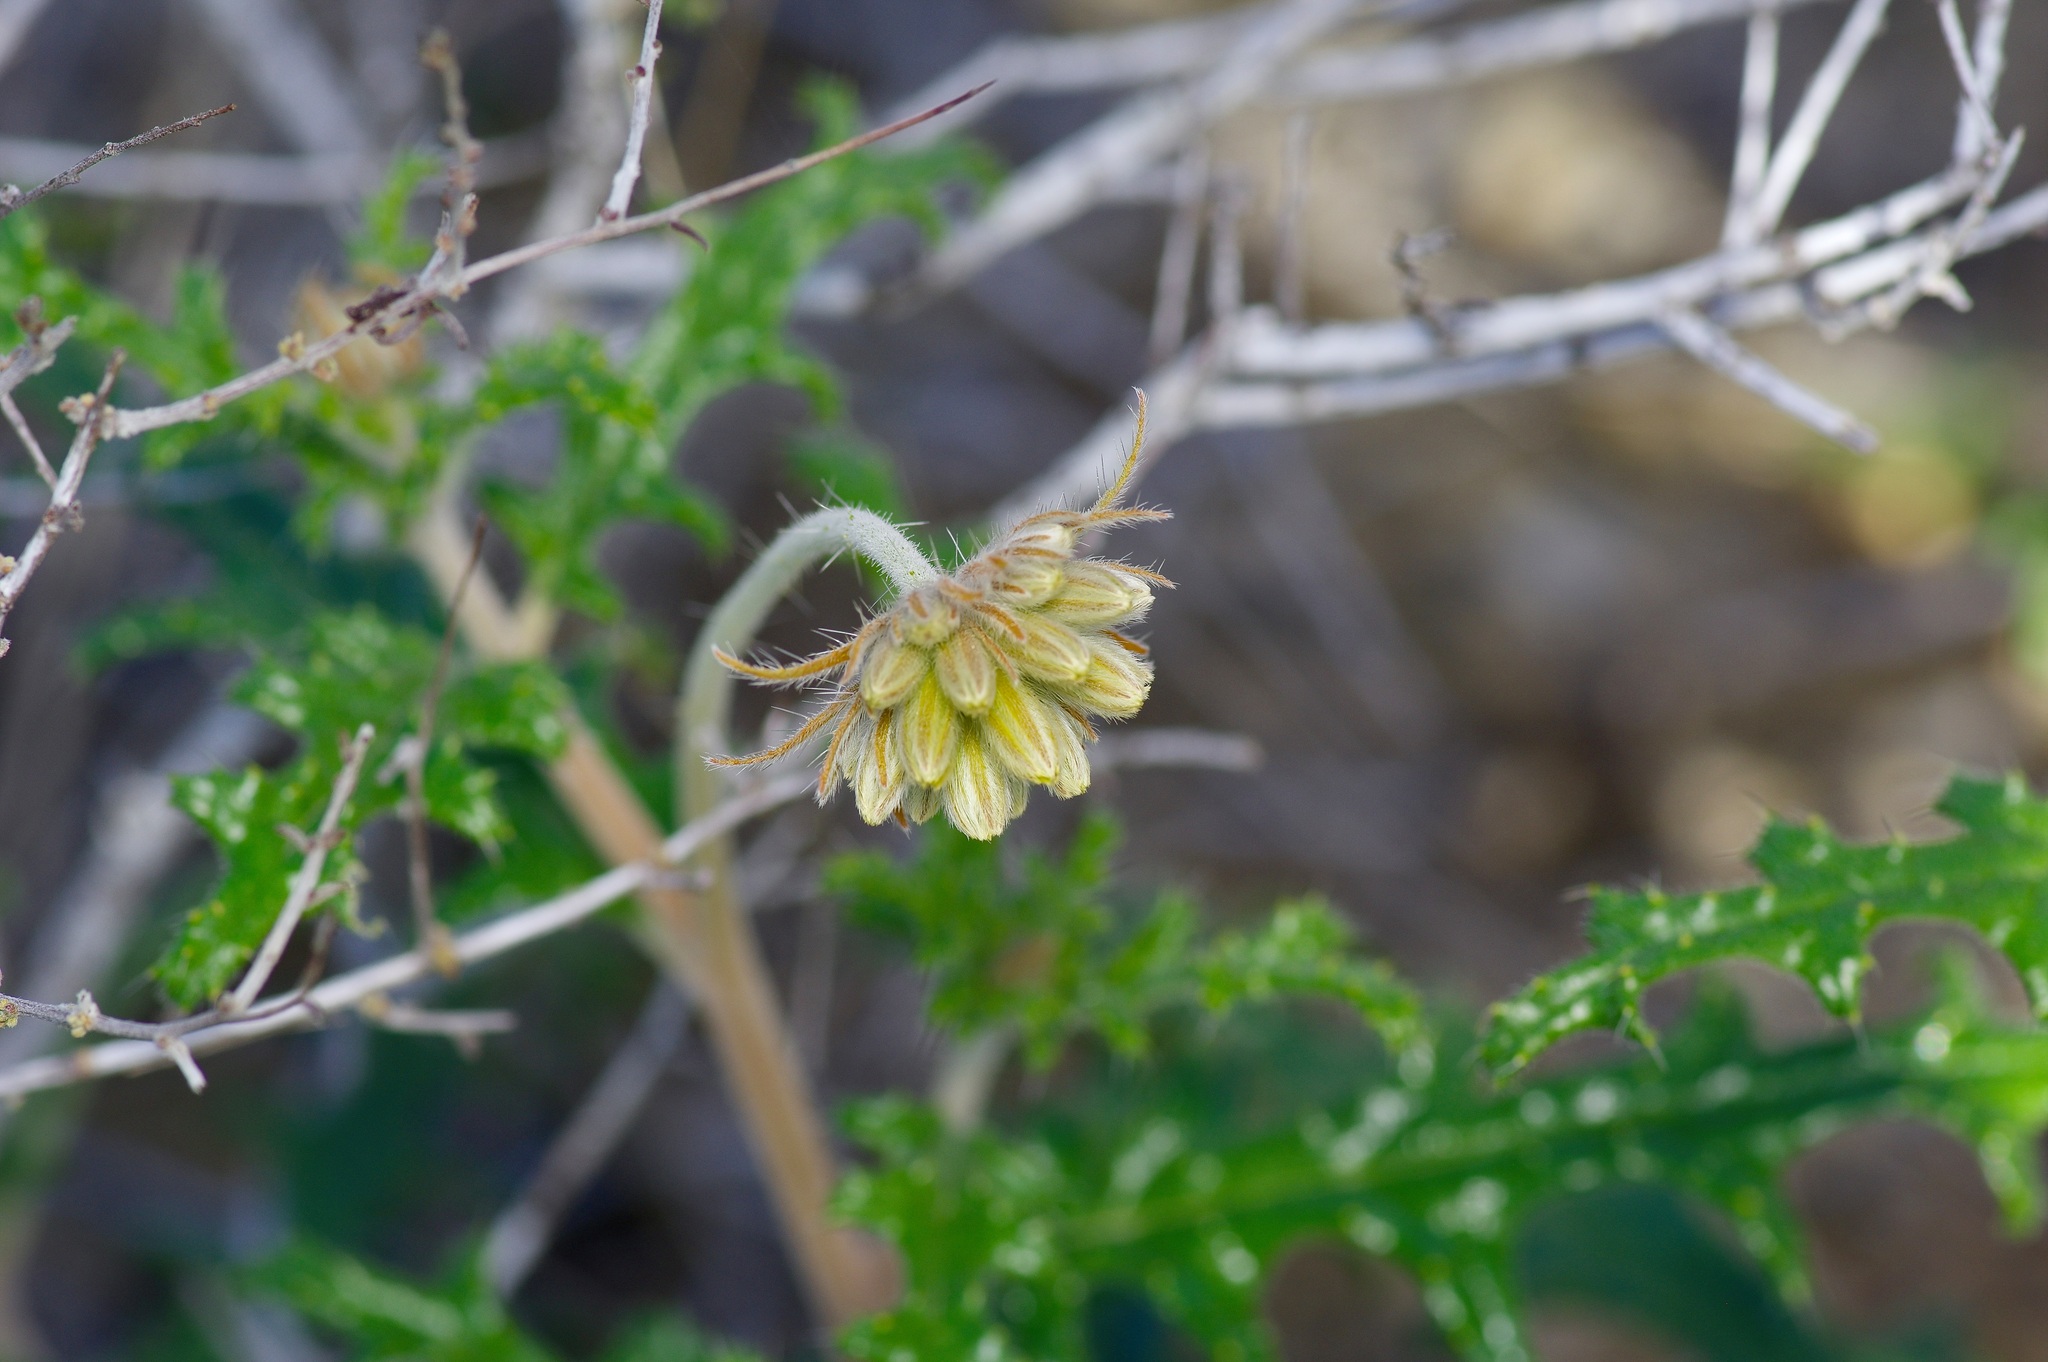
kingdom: Plantae
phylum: Tracheophyta
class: Magnoliopsida
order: Cornales
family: Loasaceae
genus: Cevallia
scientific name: Cevallia sinuata
